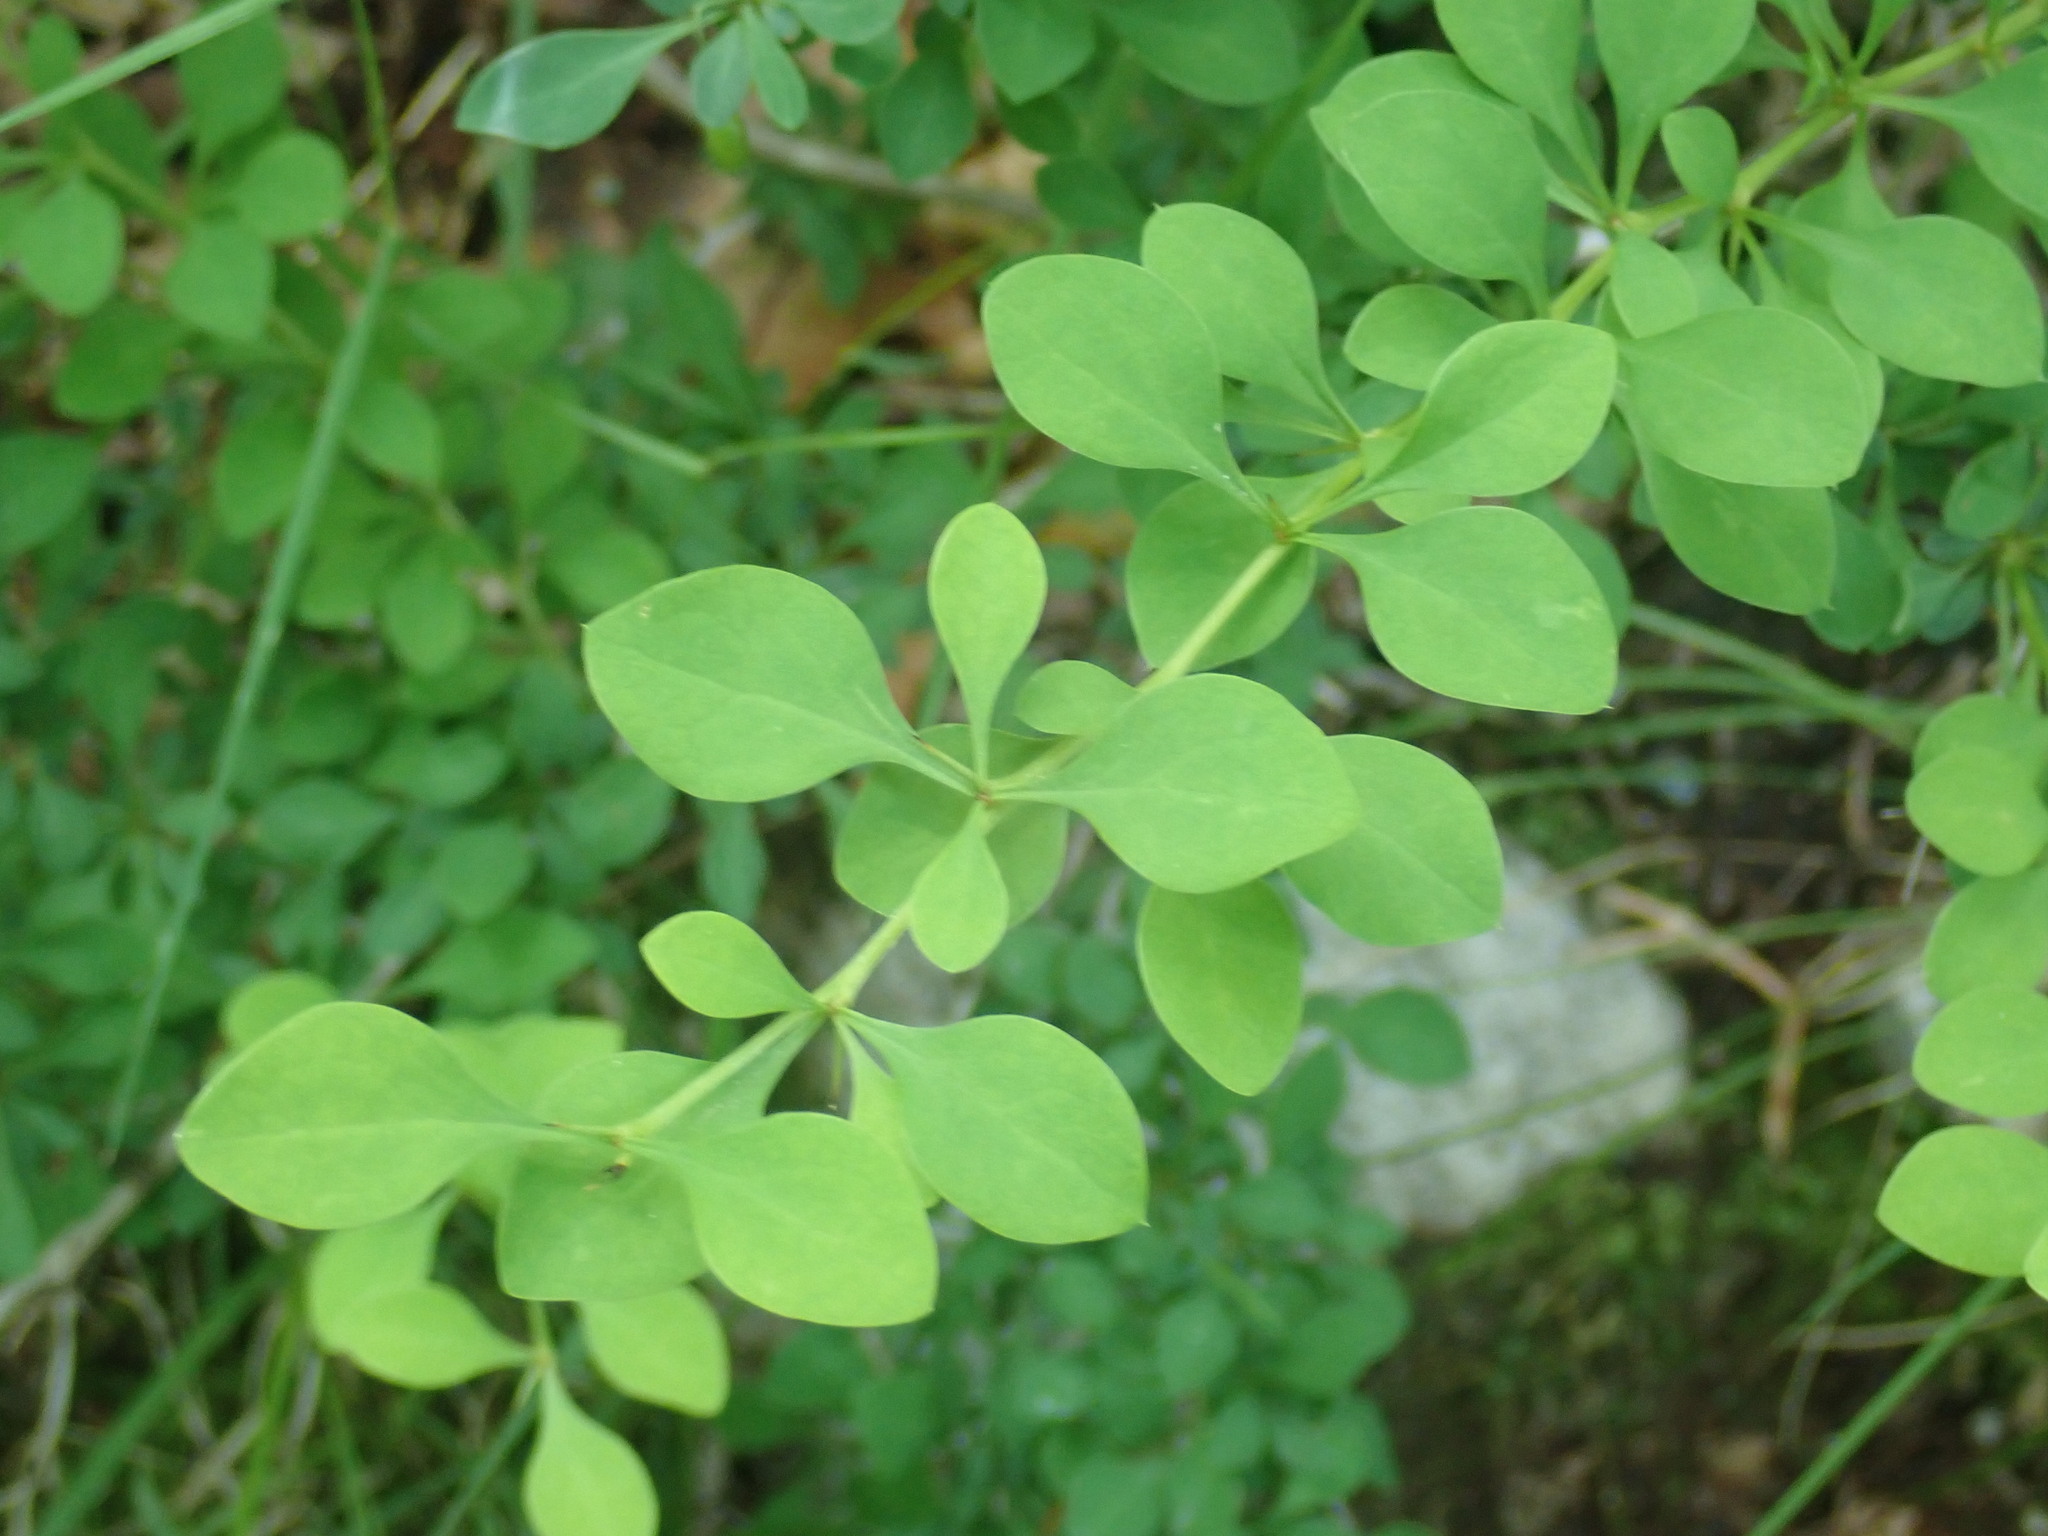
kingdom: Plantae
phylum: Tracheophyta
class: Magnoliopsida
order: Ranunculales
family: Berberidaceae
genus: Berberis
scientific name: Berberis thunbergii
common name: Japanese barberry
